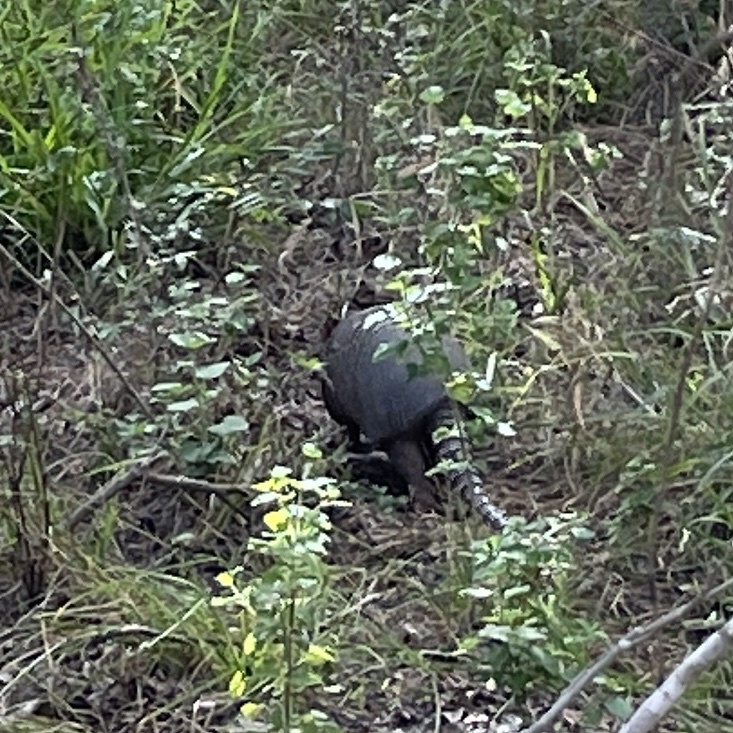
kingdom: Animalia
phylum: Chordata
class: Mammalia
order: Cingulata
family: Dasypodidae
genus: Dasypus
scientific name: Dasypus novemcinctus
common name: Nine-banded armadillo
